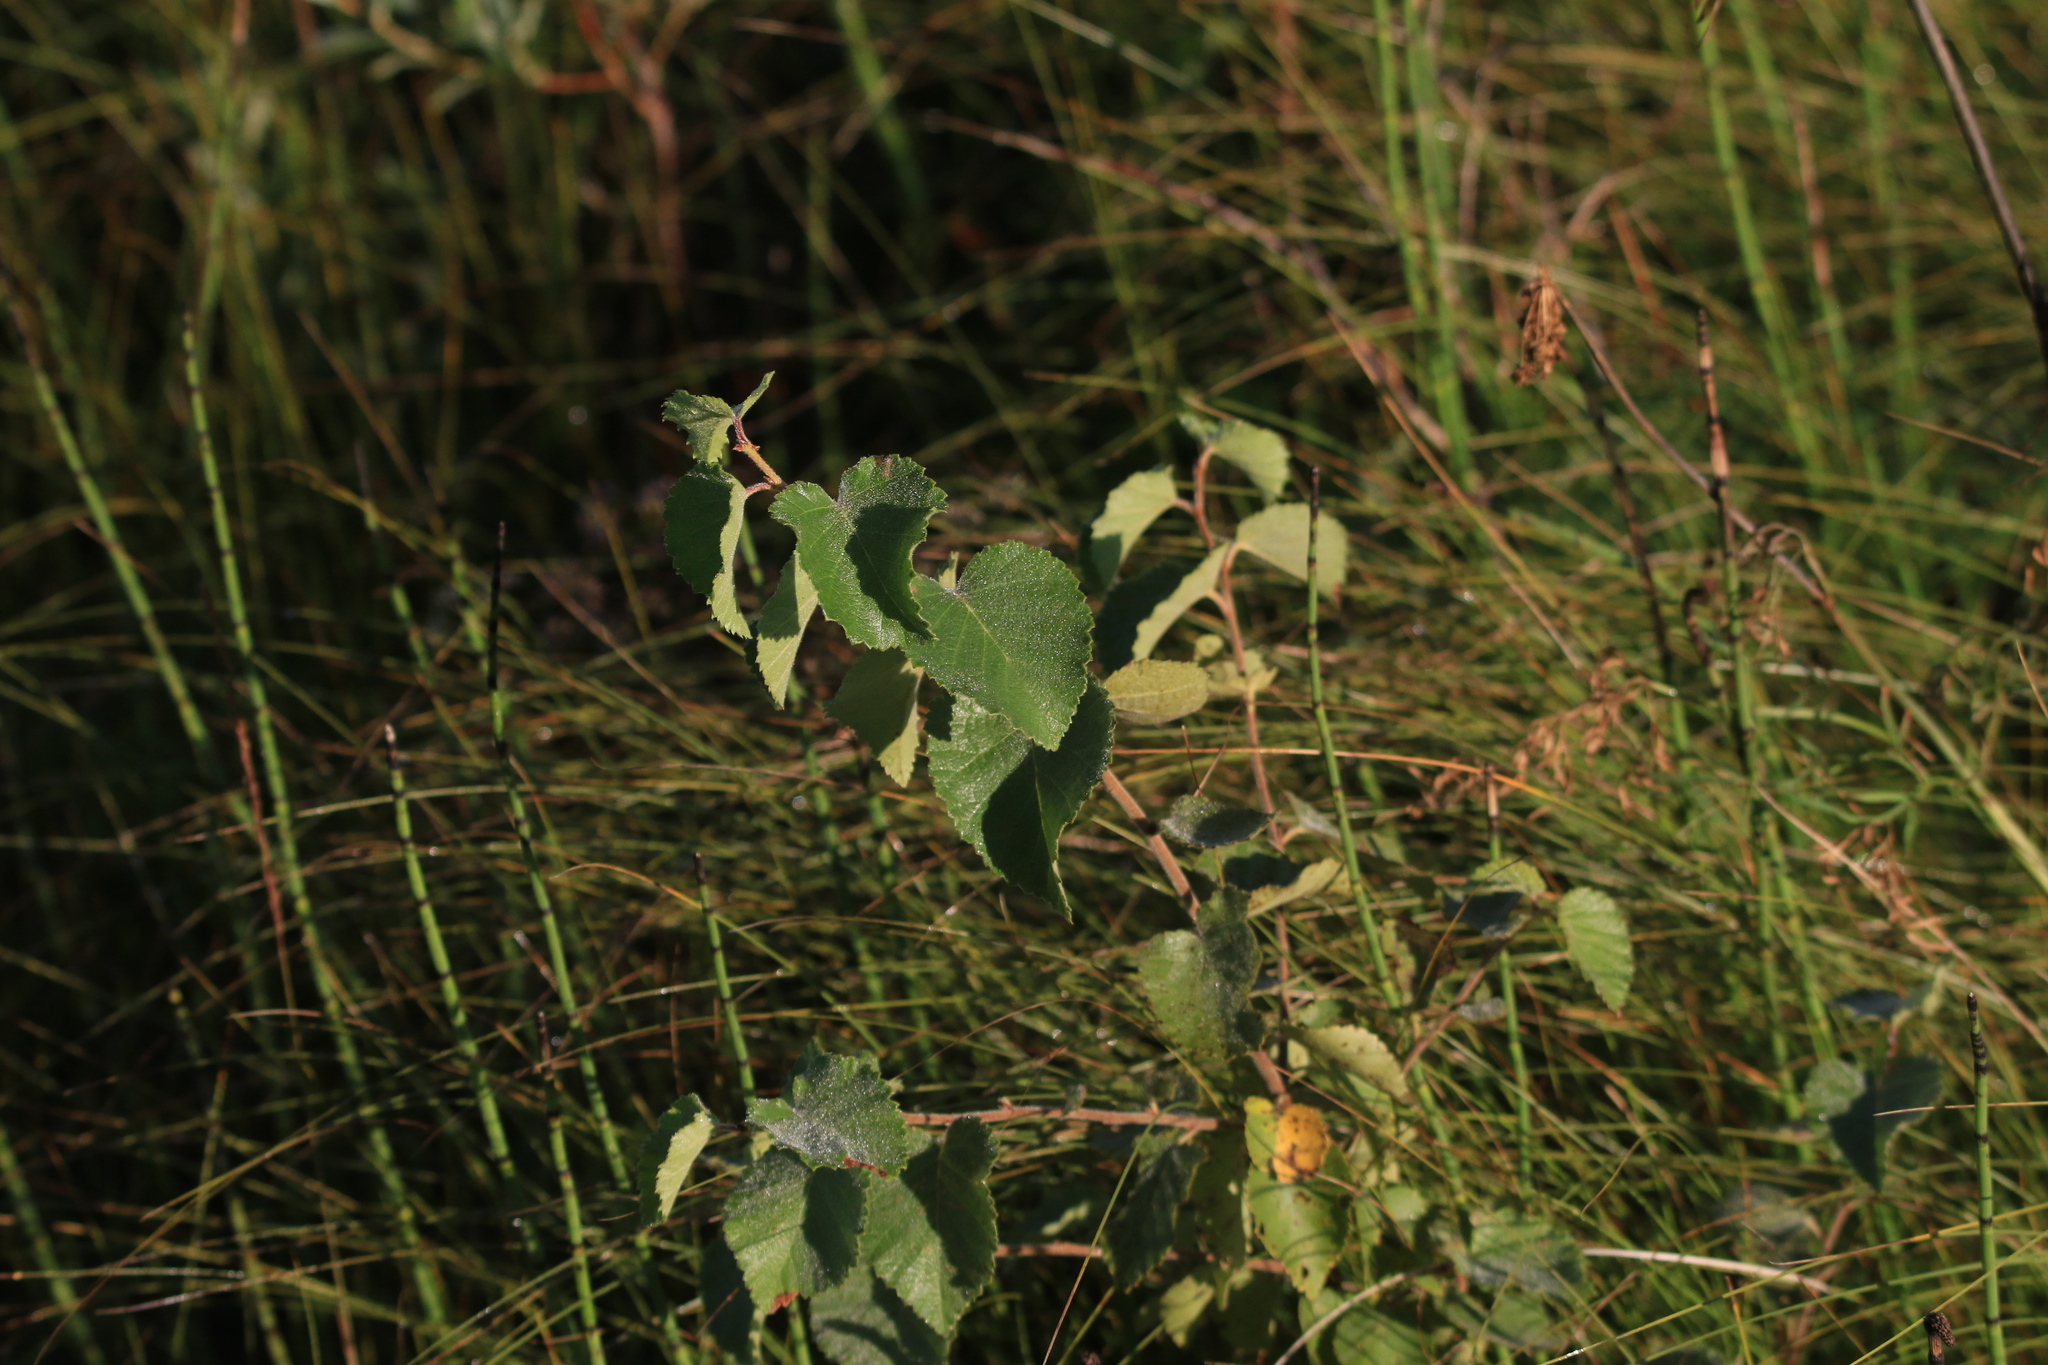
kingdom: Plantae
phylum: Tracheophyta
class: Magnoliopsida
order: Fagales
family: Betulaceae
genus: Betula
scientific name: Betula pubescens
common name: Downy birch
